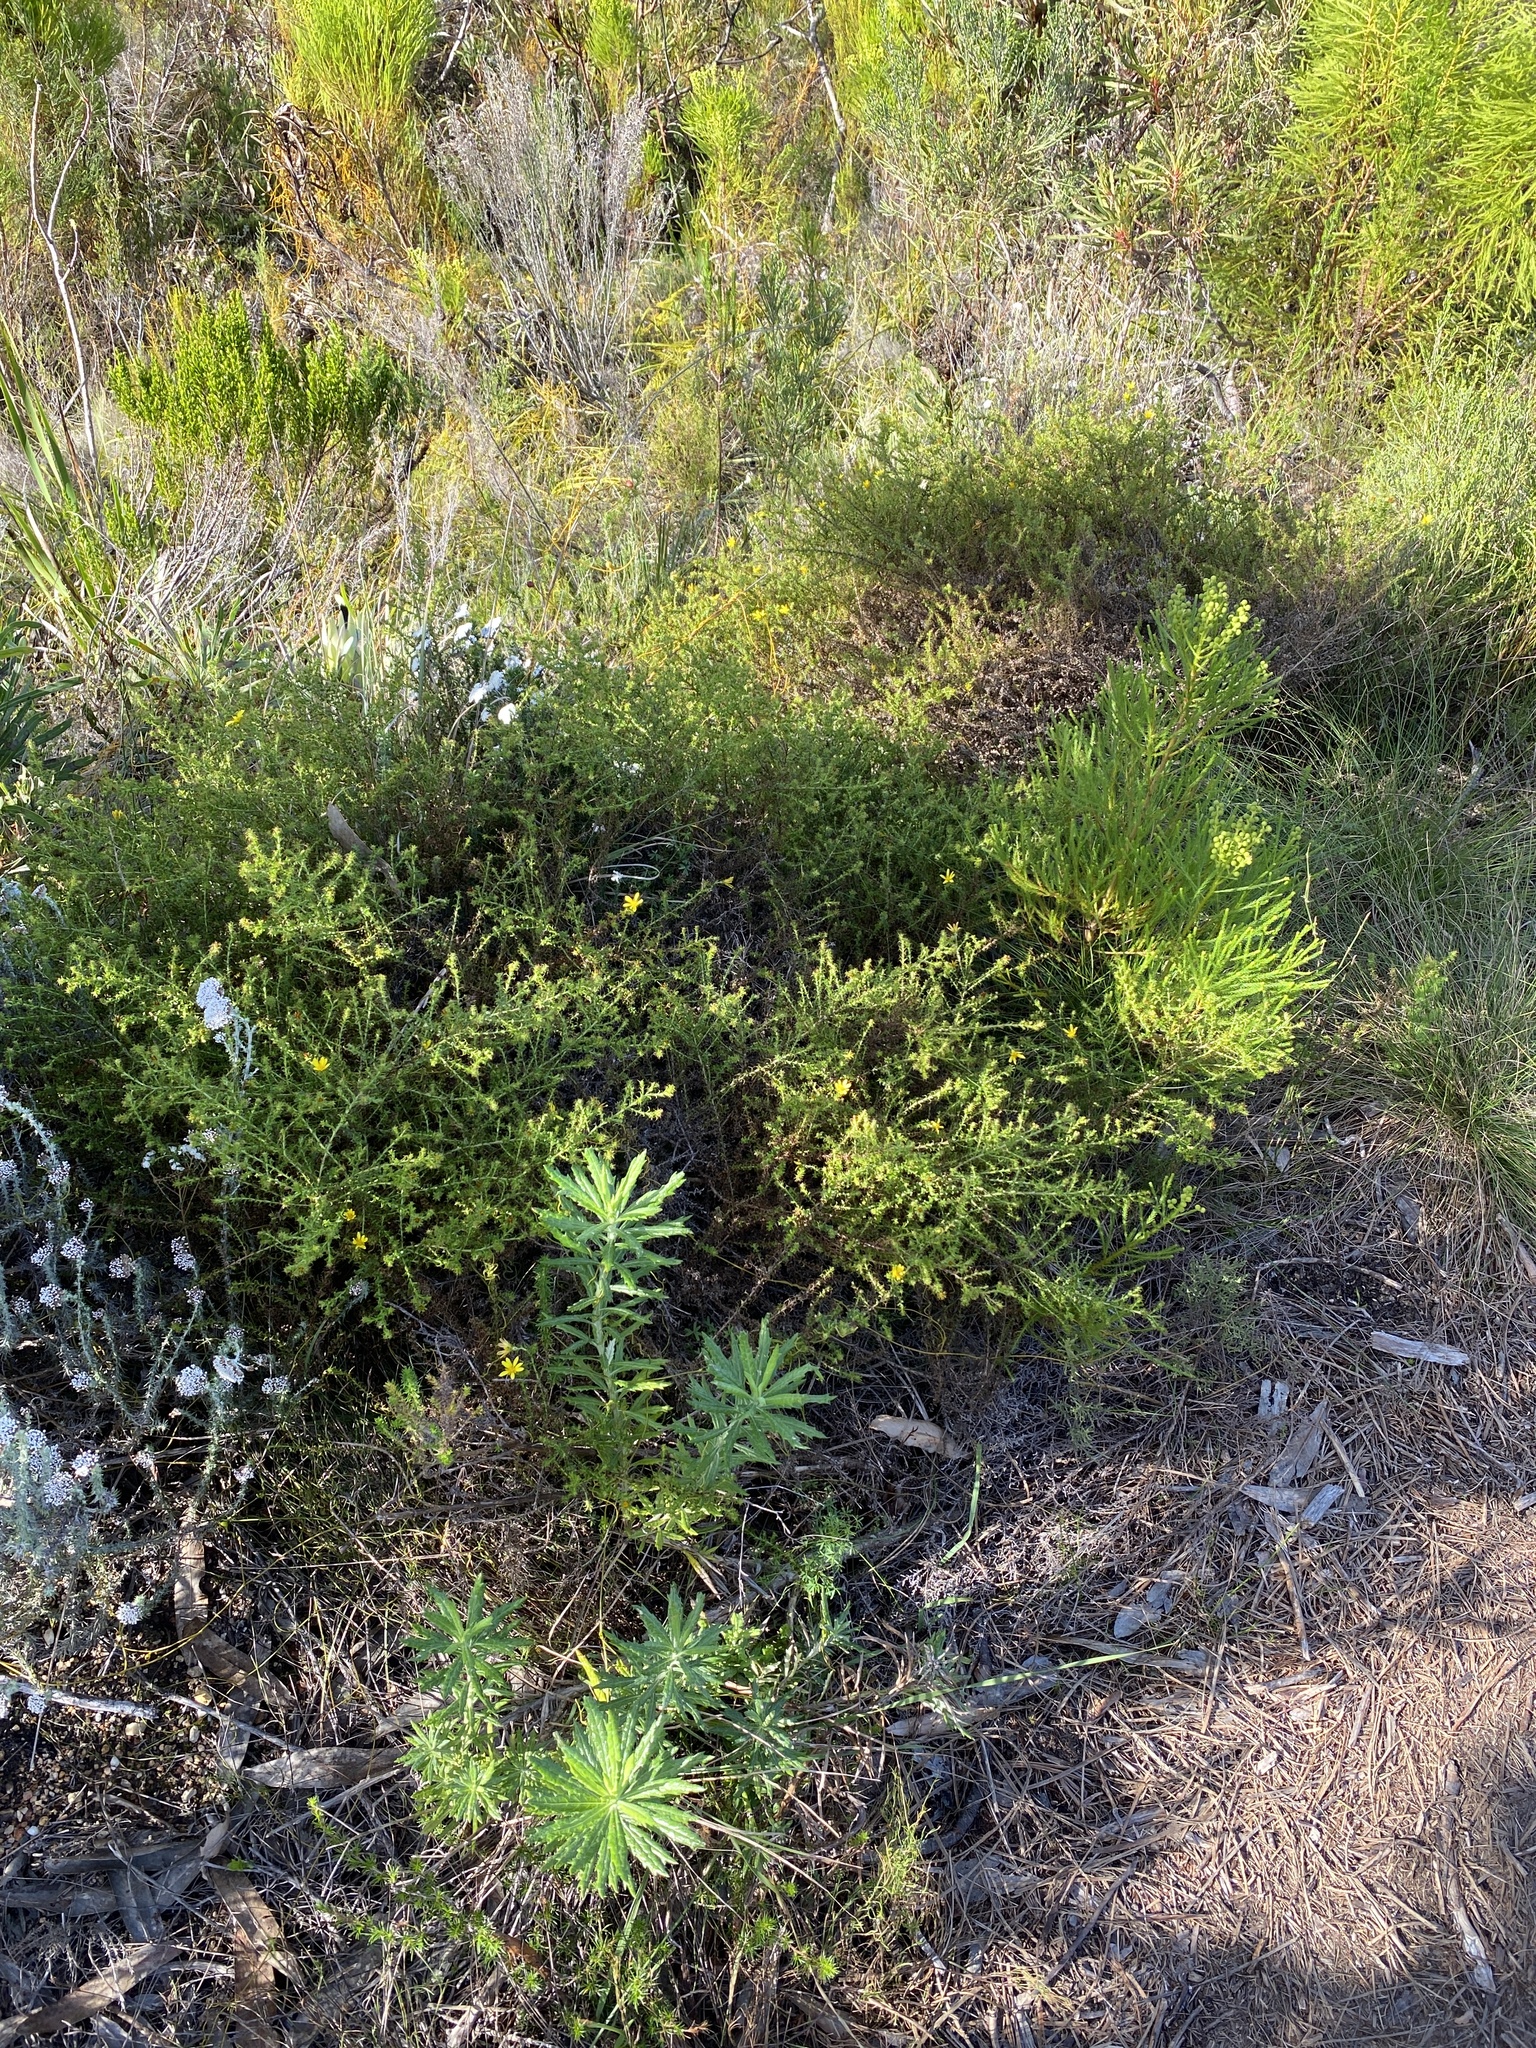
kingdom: Plantae
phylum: Tracheophyta
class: Magnoliopsida
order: Asterales
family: Asteraceae
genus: Cullumia
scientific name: Cullumia setosa
